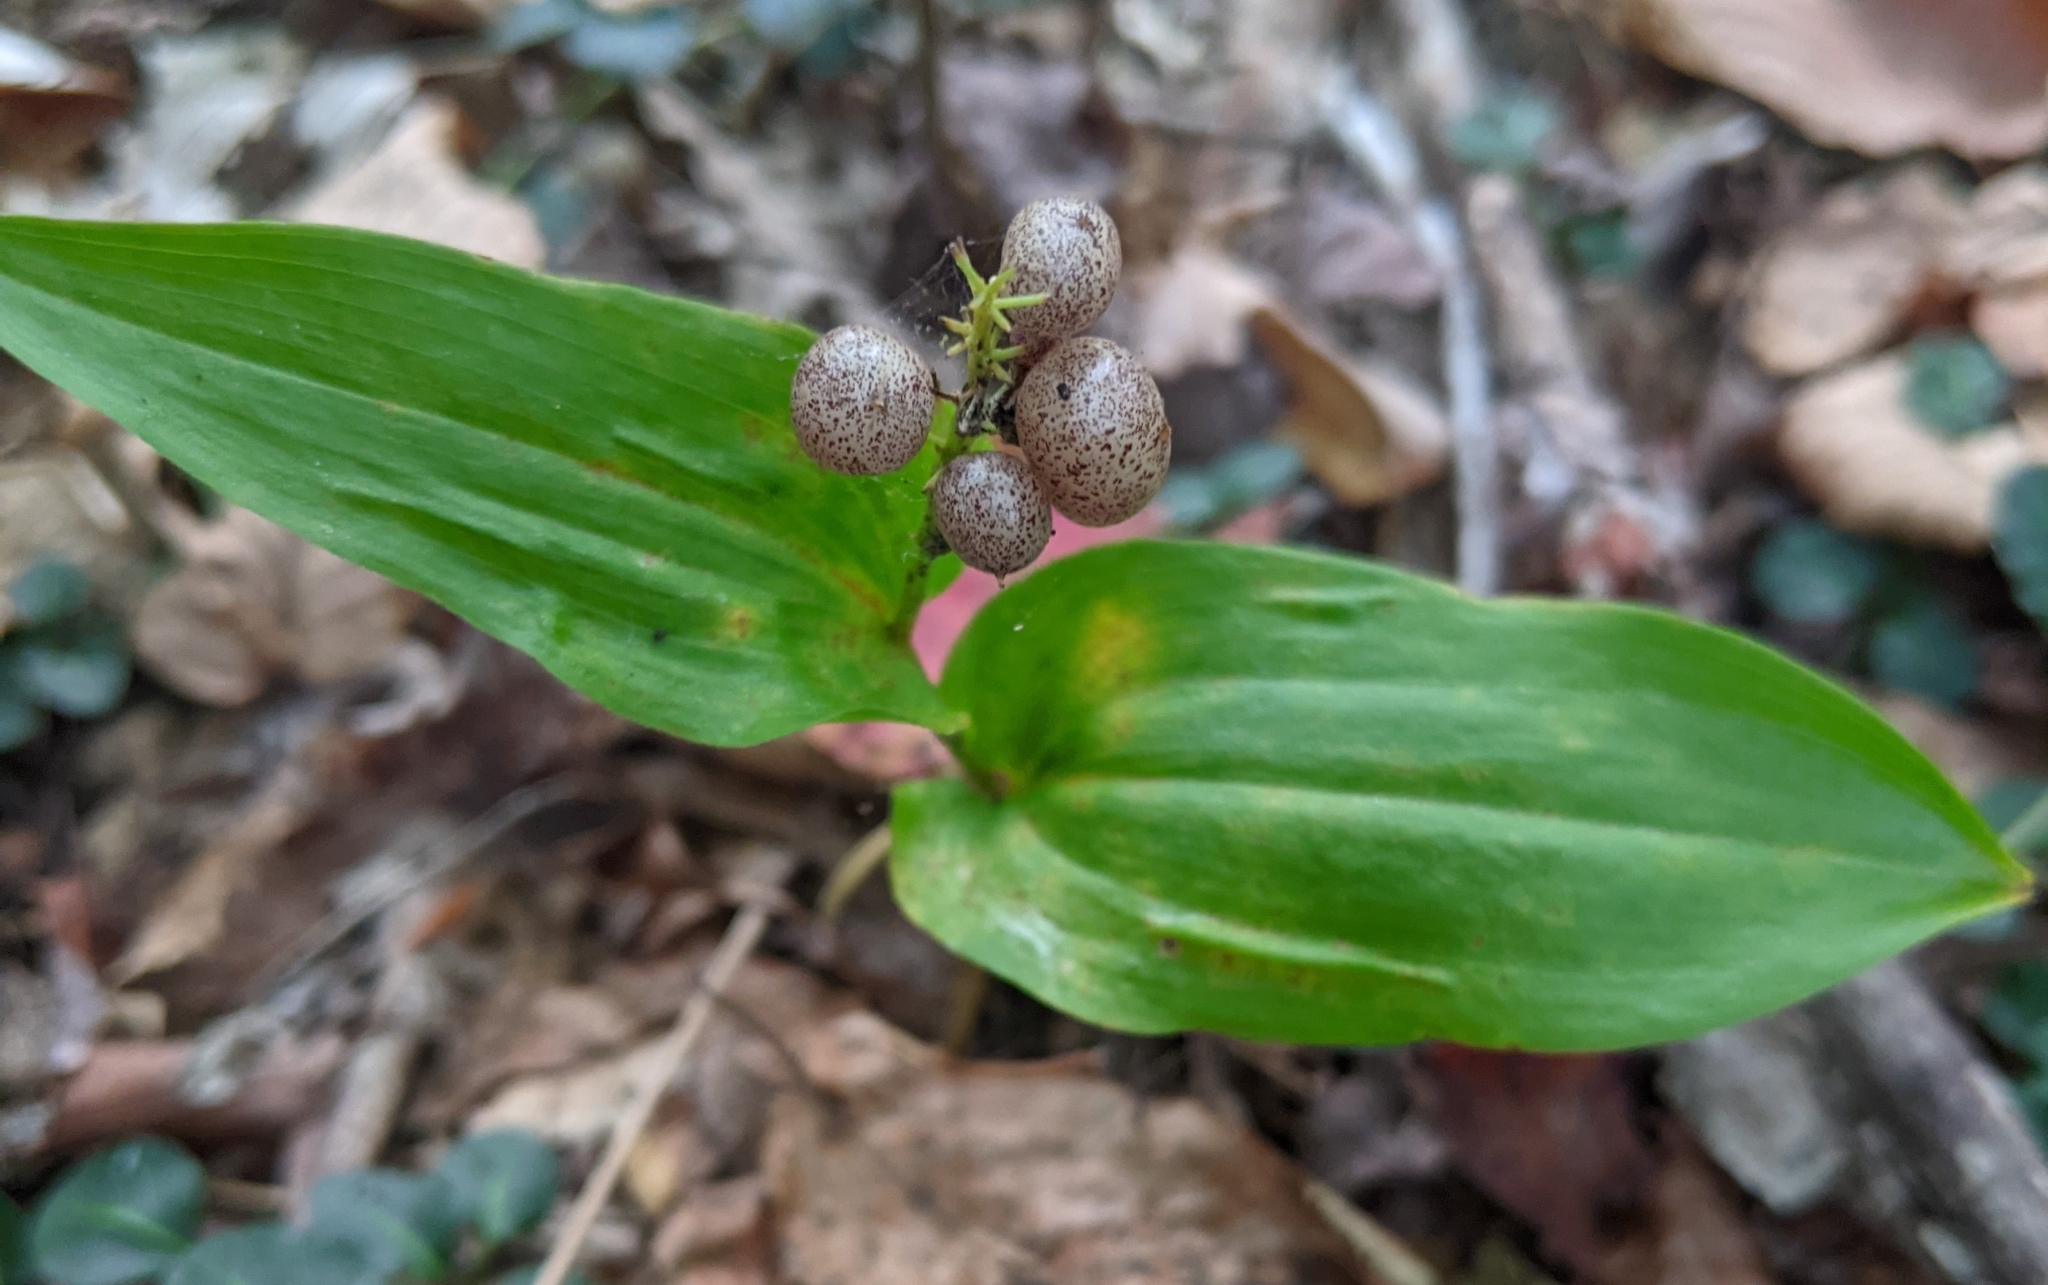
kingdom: Plantae
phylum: Tracheophyta
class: Liliopsida
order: Asparagales
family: Asparagaceae
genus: Maianthemum
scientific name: Maianthemum canadense
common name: False lily-of-the-valley
